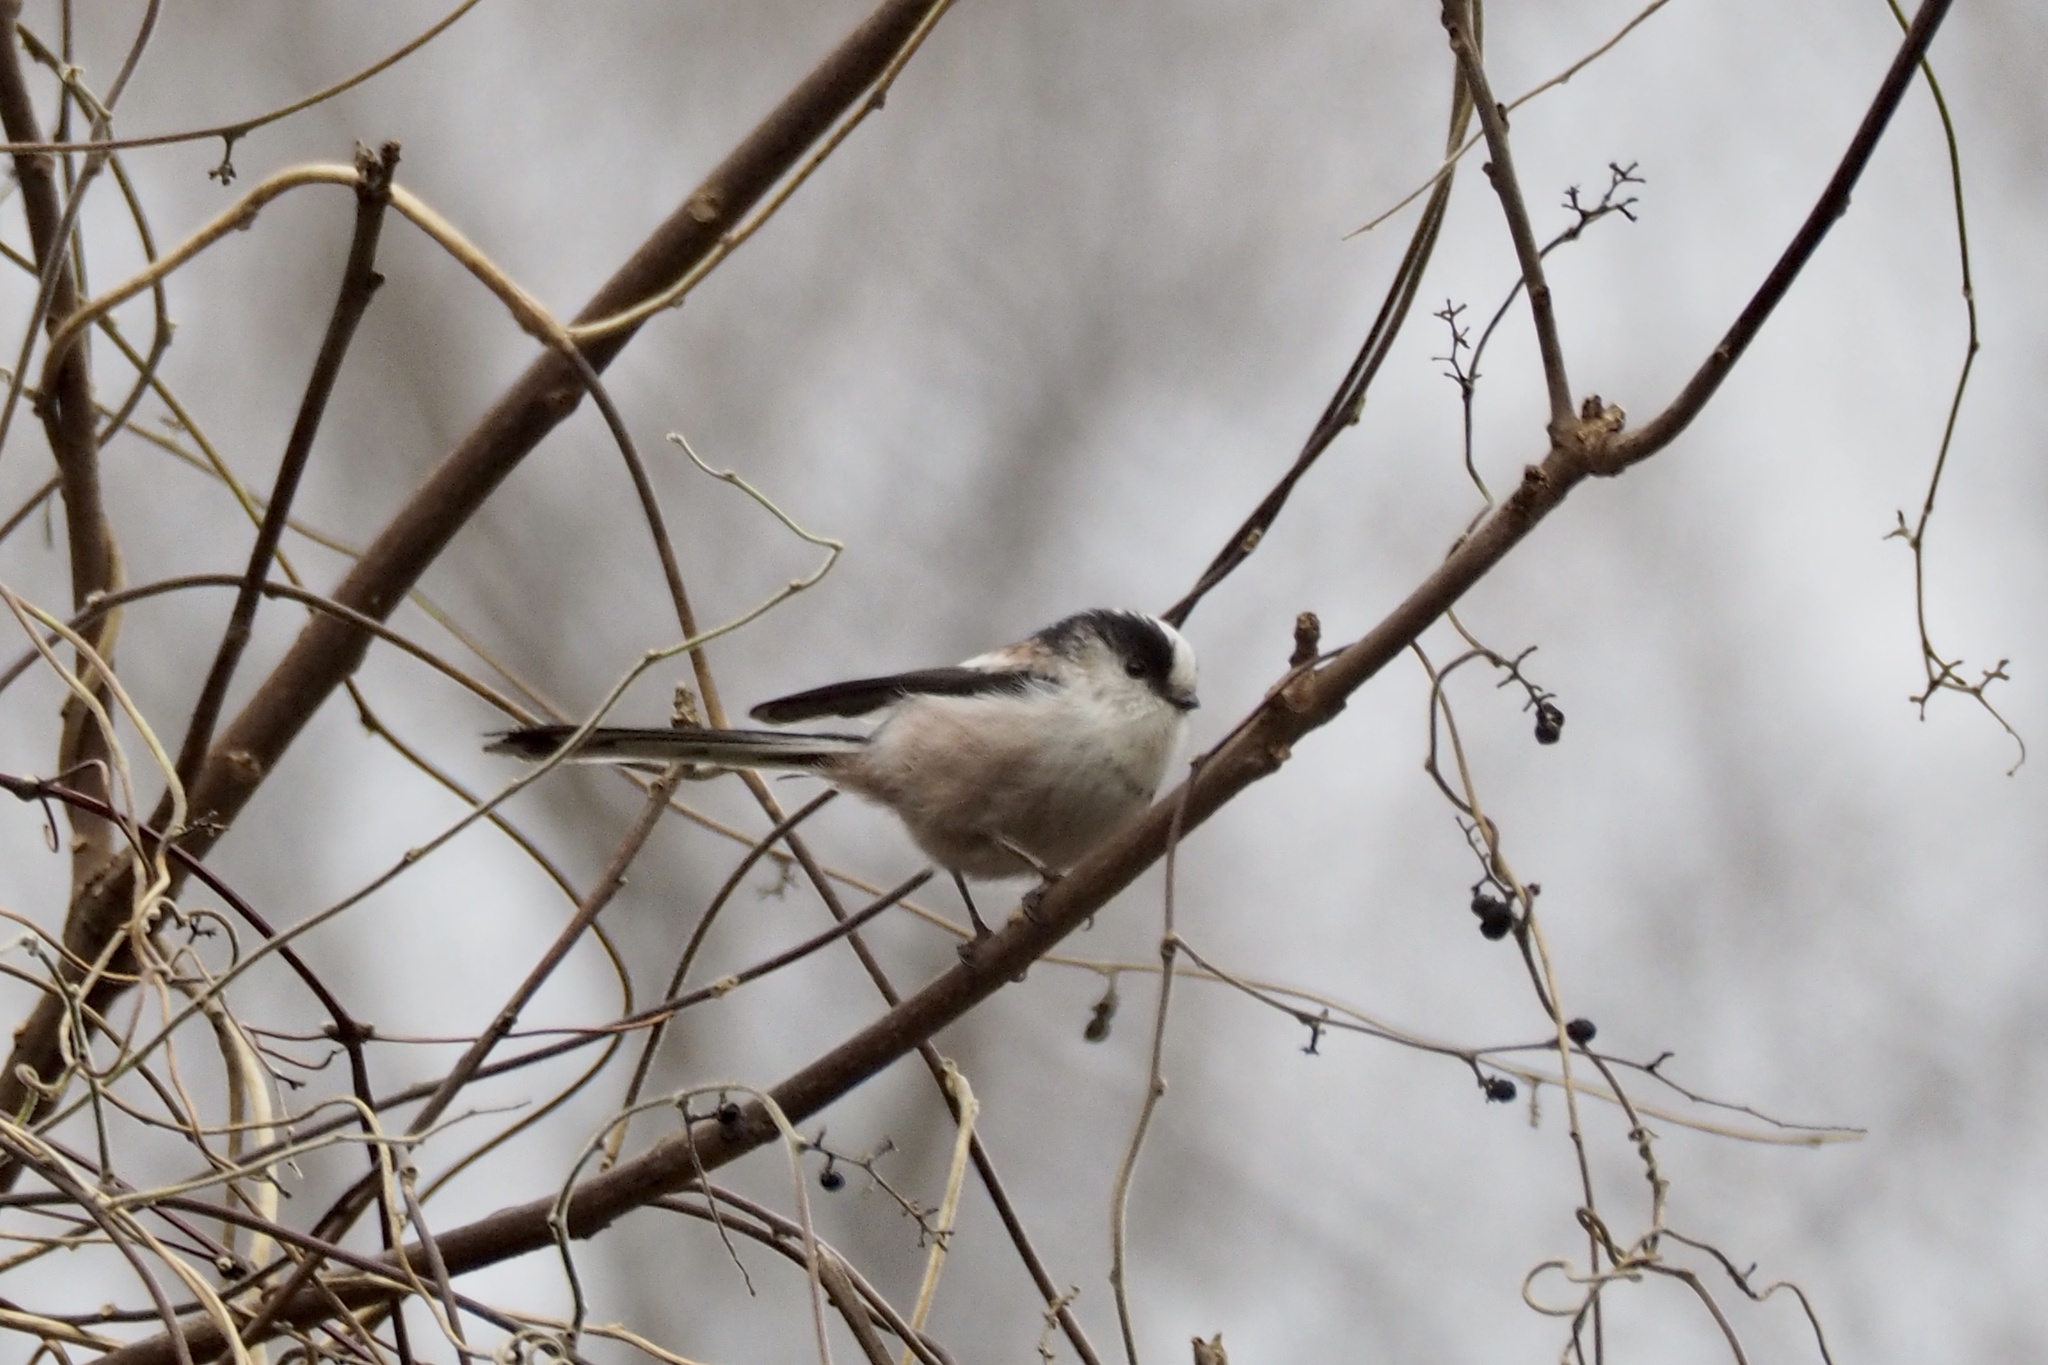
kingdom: Animalia
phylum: Chordata
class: Aves
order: Passeriformes
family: Aegithalidae
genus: Aegithalos
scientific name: Aegithalos caudatus
